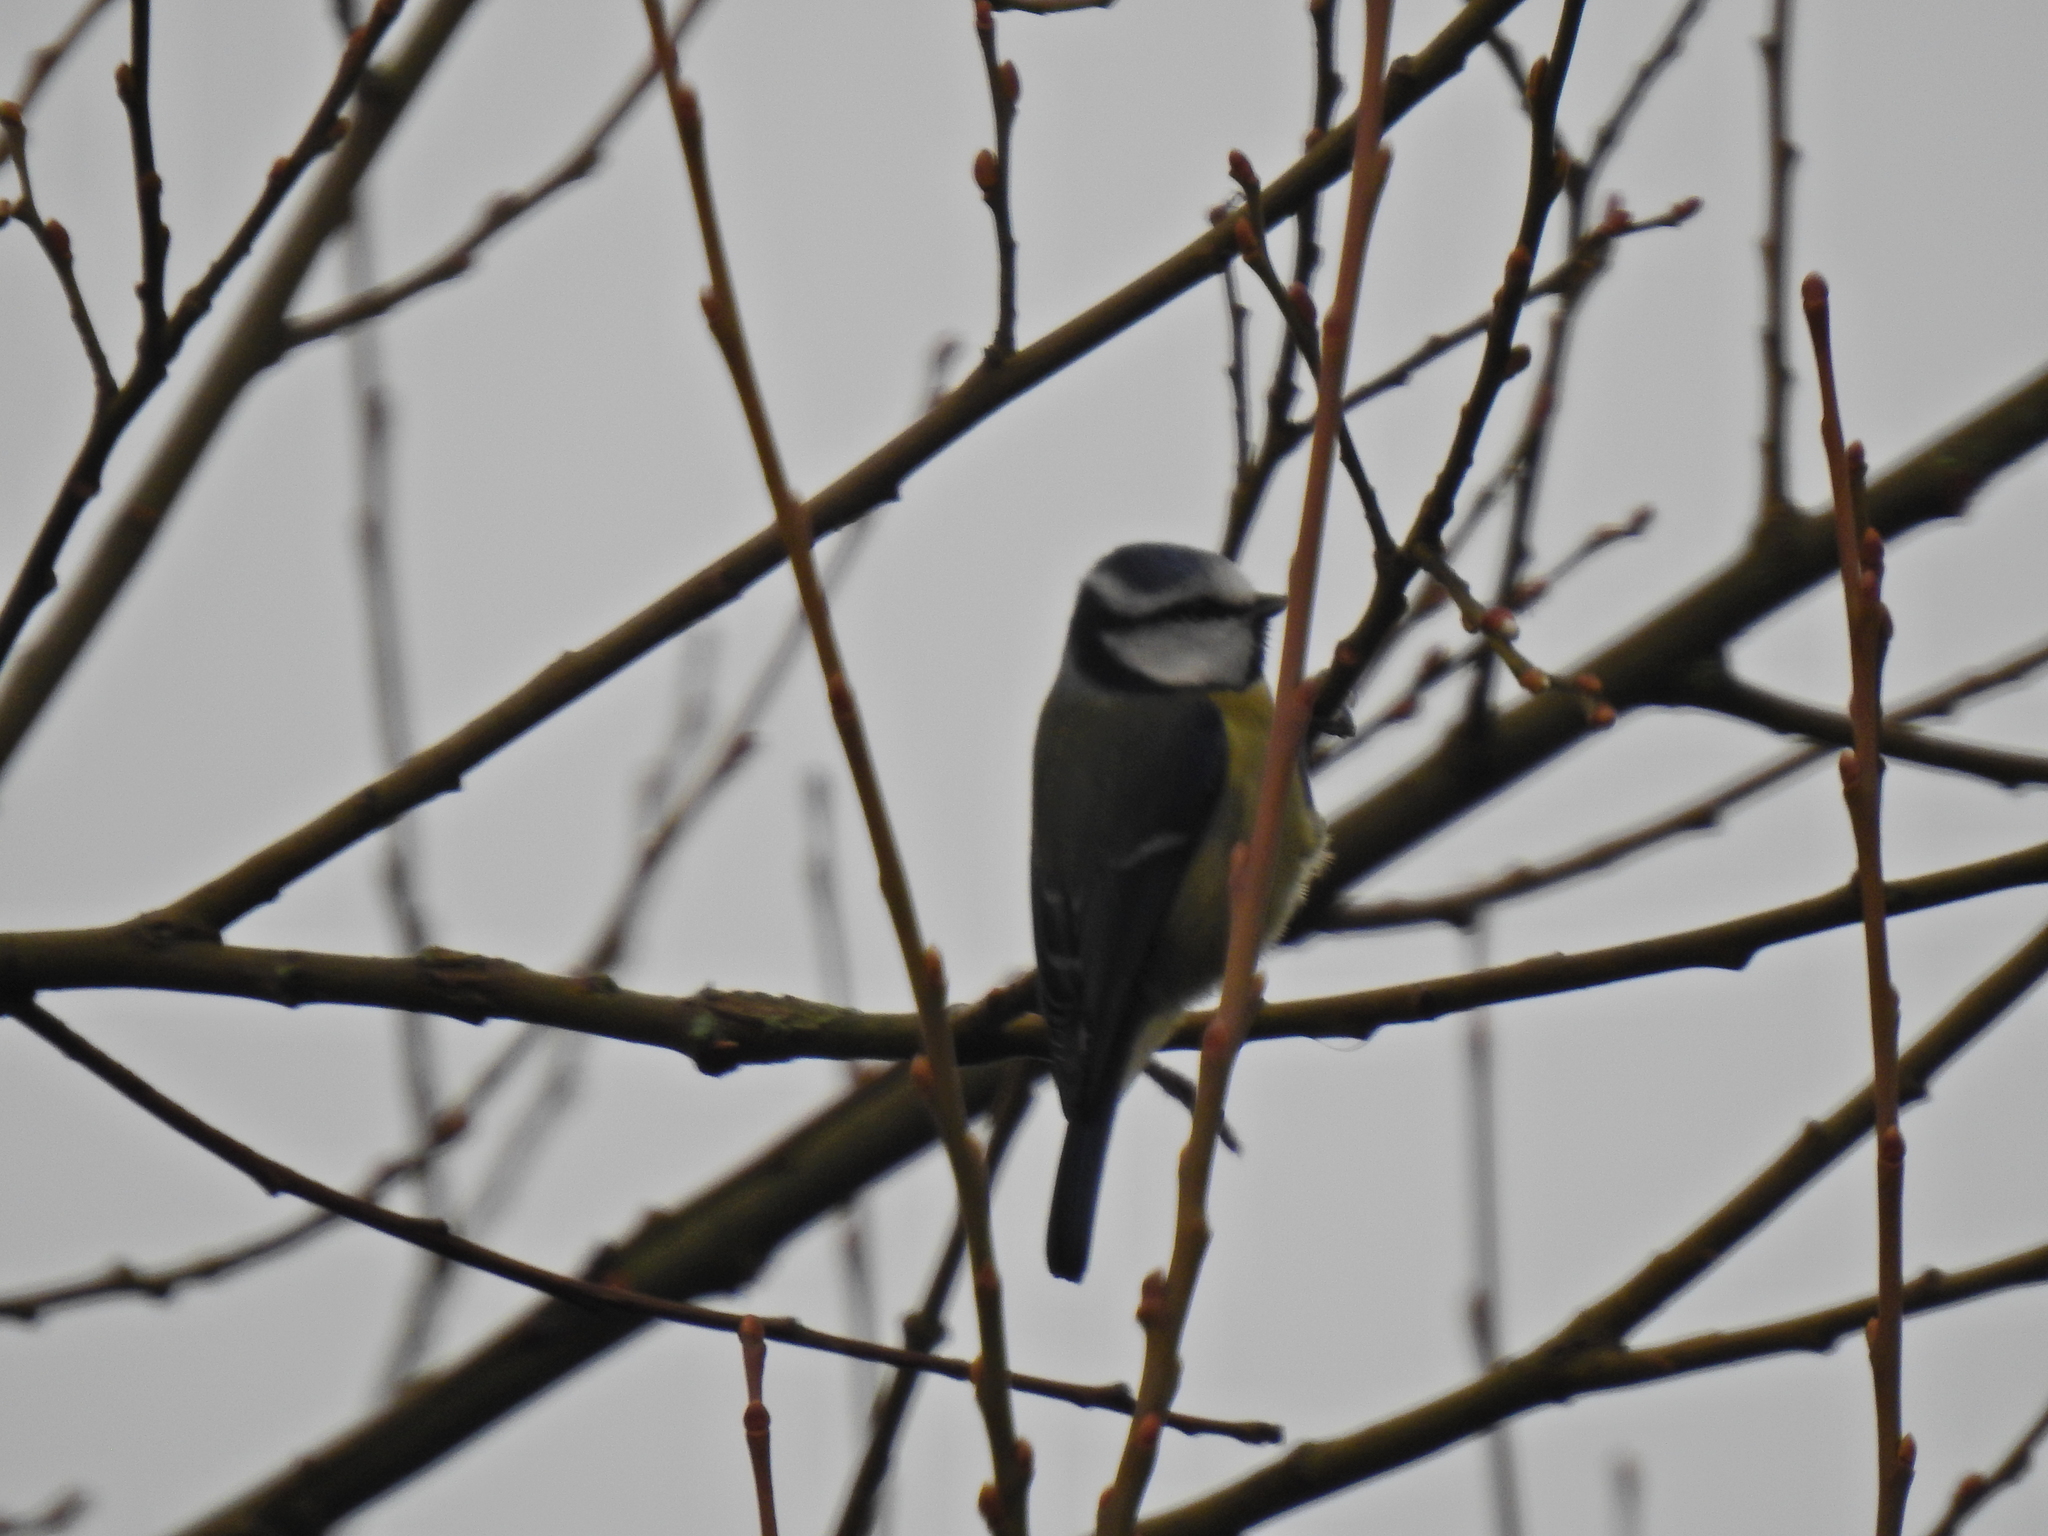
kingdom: Animalia
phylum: Chordata
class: Aves
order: Passeriformes
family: Paridae
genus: Cyanistes
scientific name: Cyanistes caeruleus
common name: Eurasian blue tit
